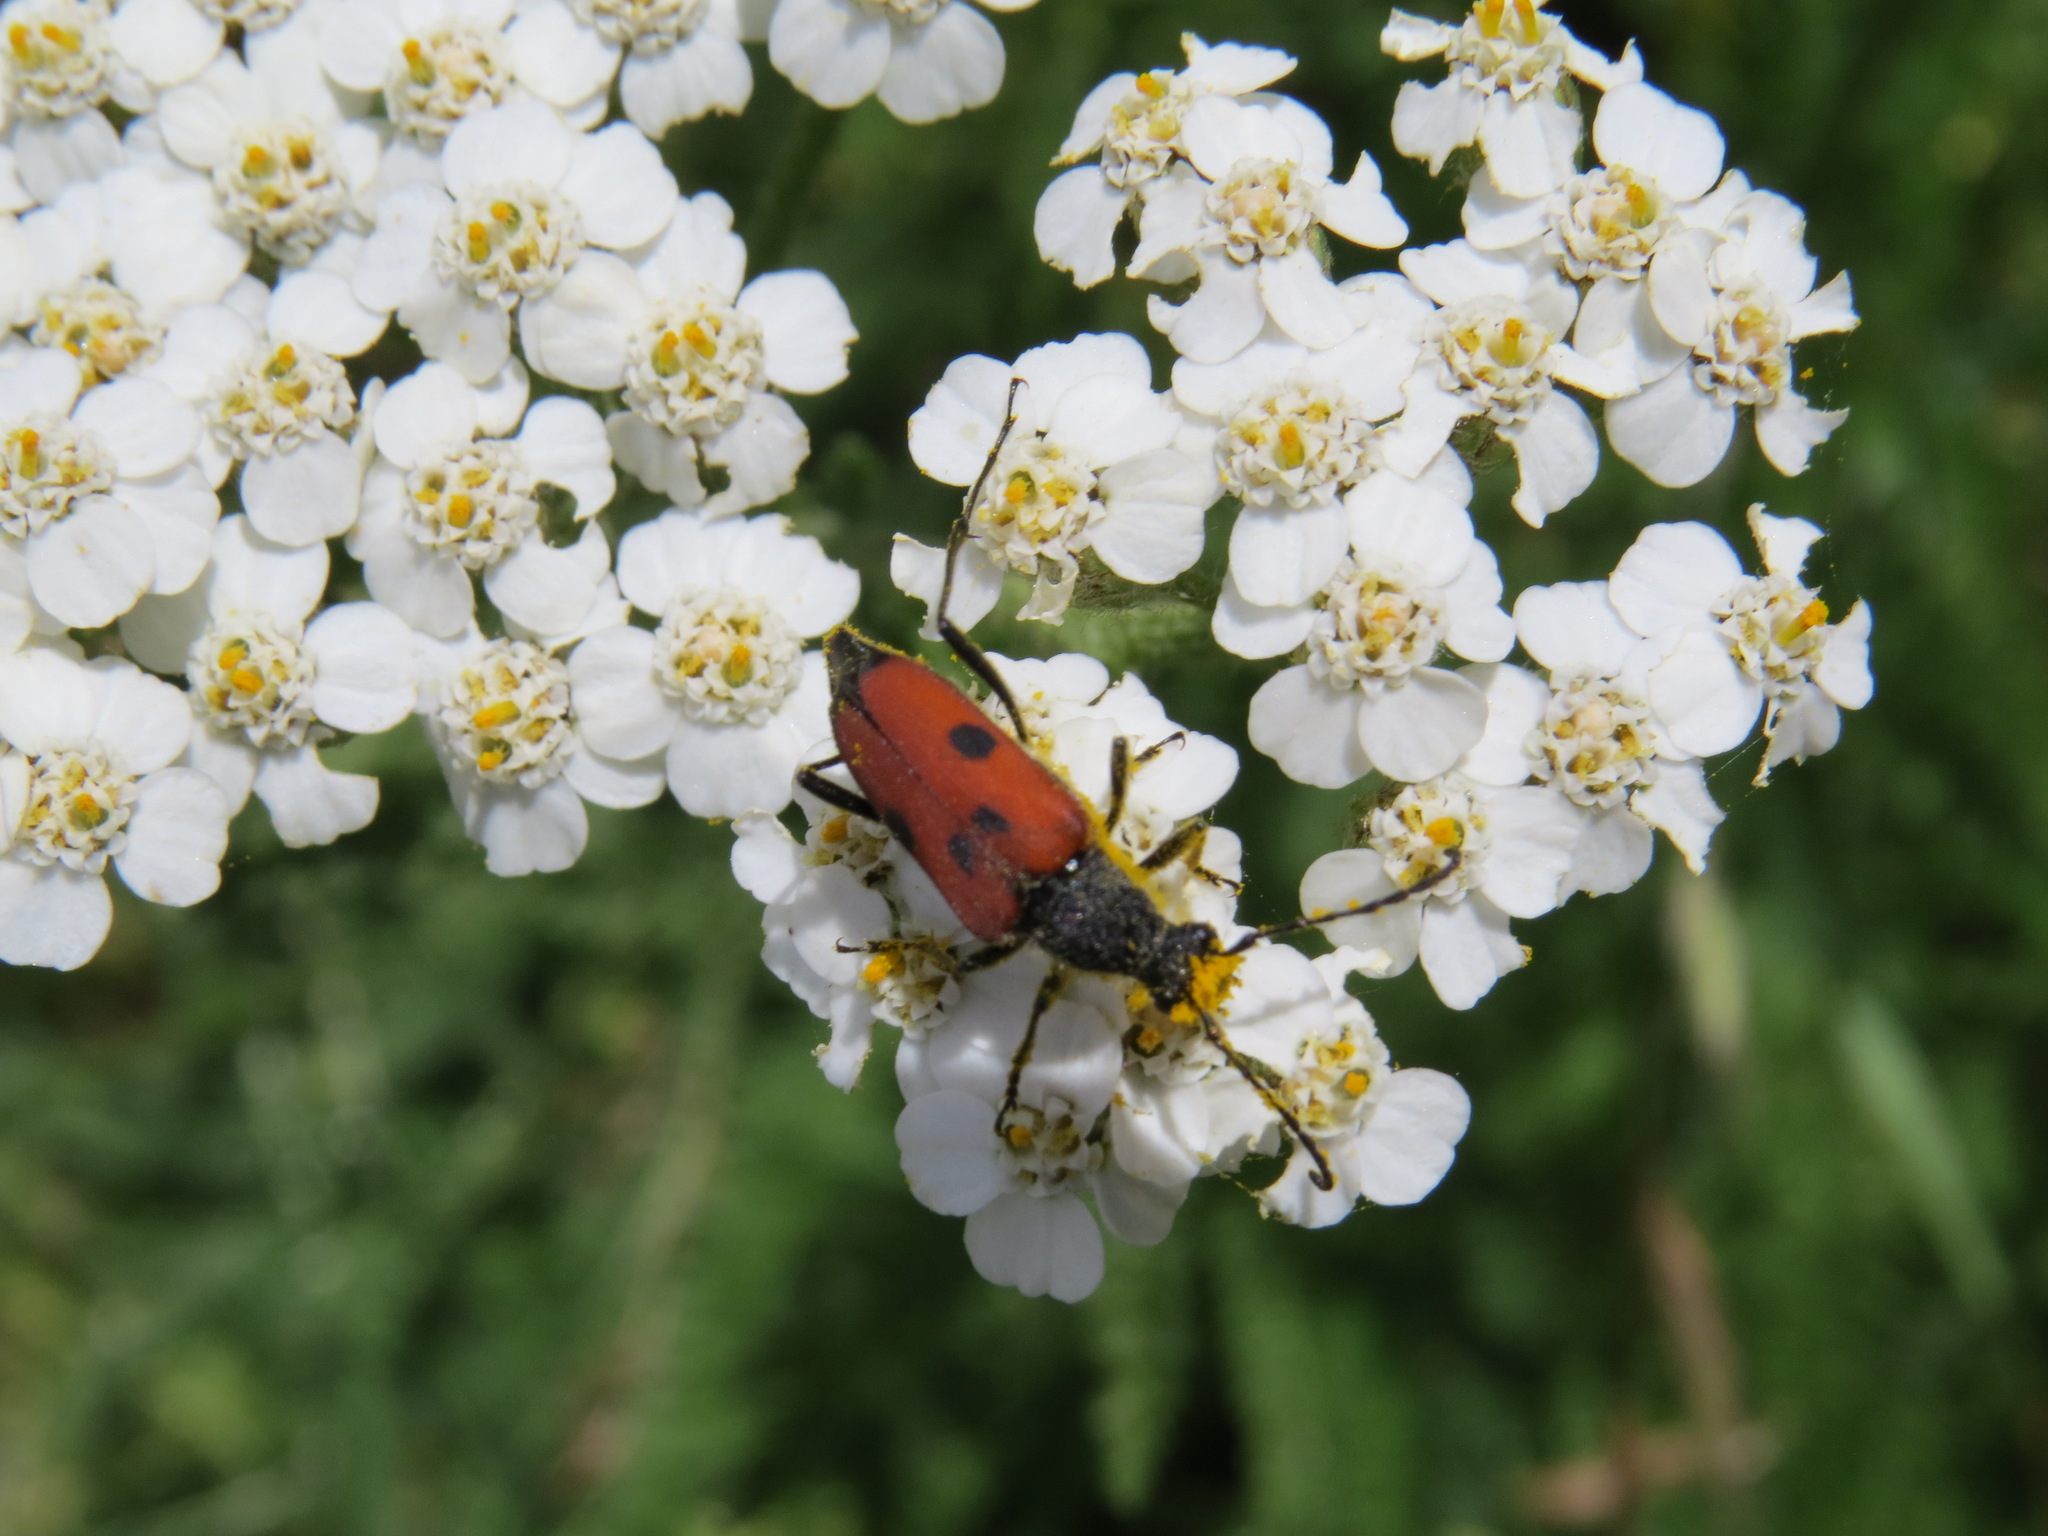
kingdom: Animalia
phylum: Arthropoda
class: Insecta
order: Coleoptera
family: Cerambycidae
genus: Anastrangalia
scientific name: Anastrangalia laetifica
